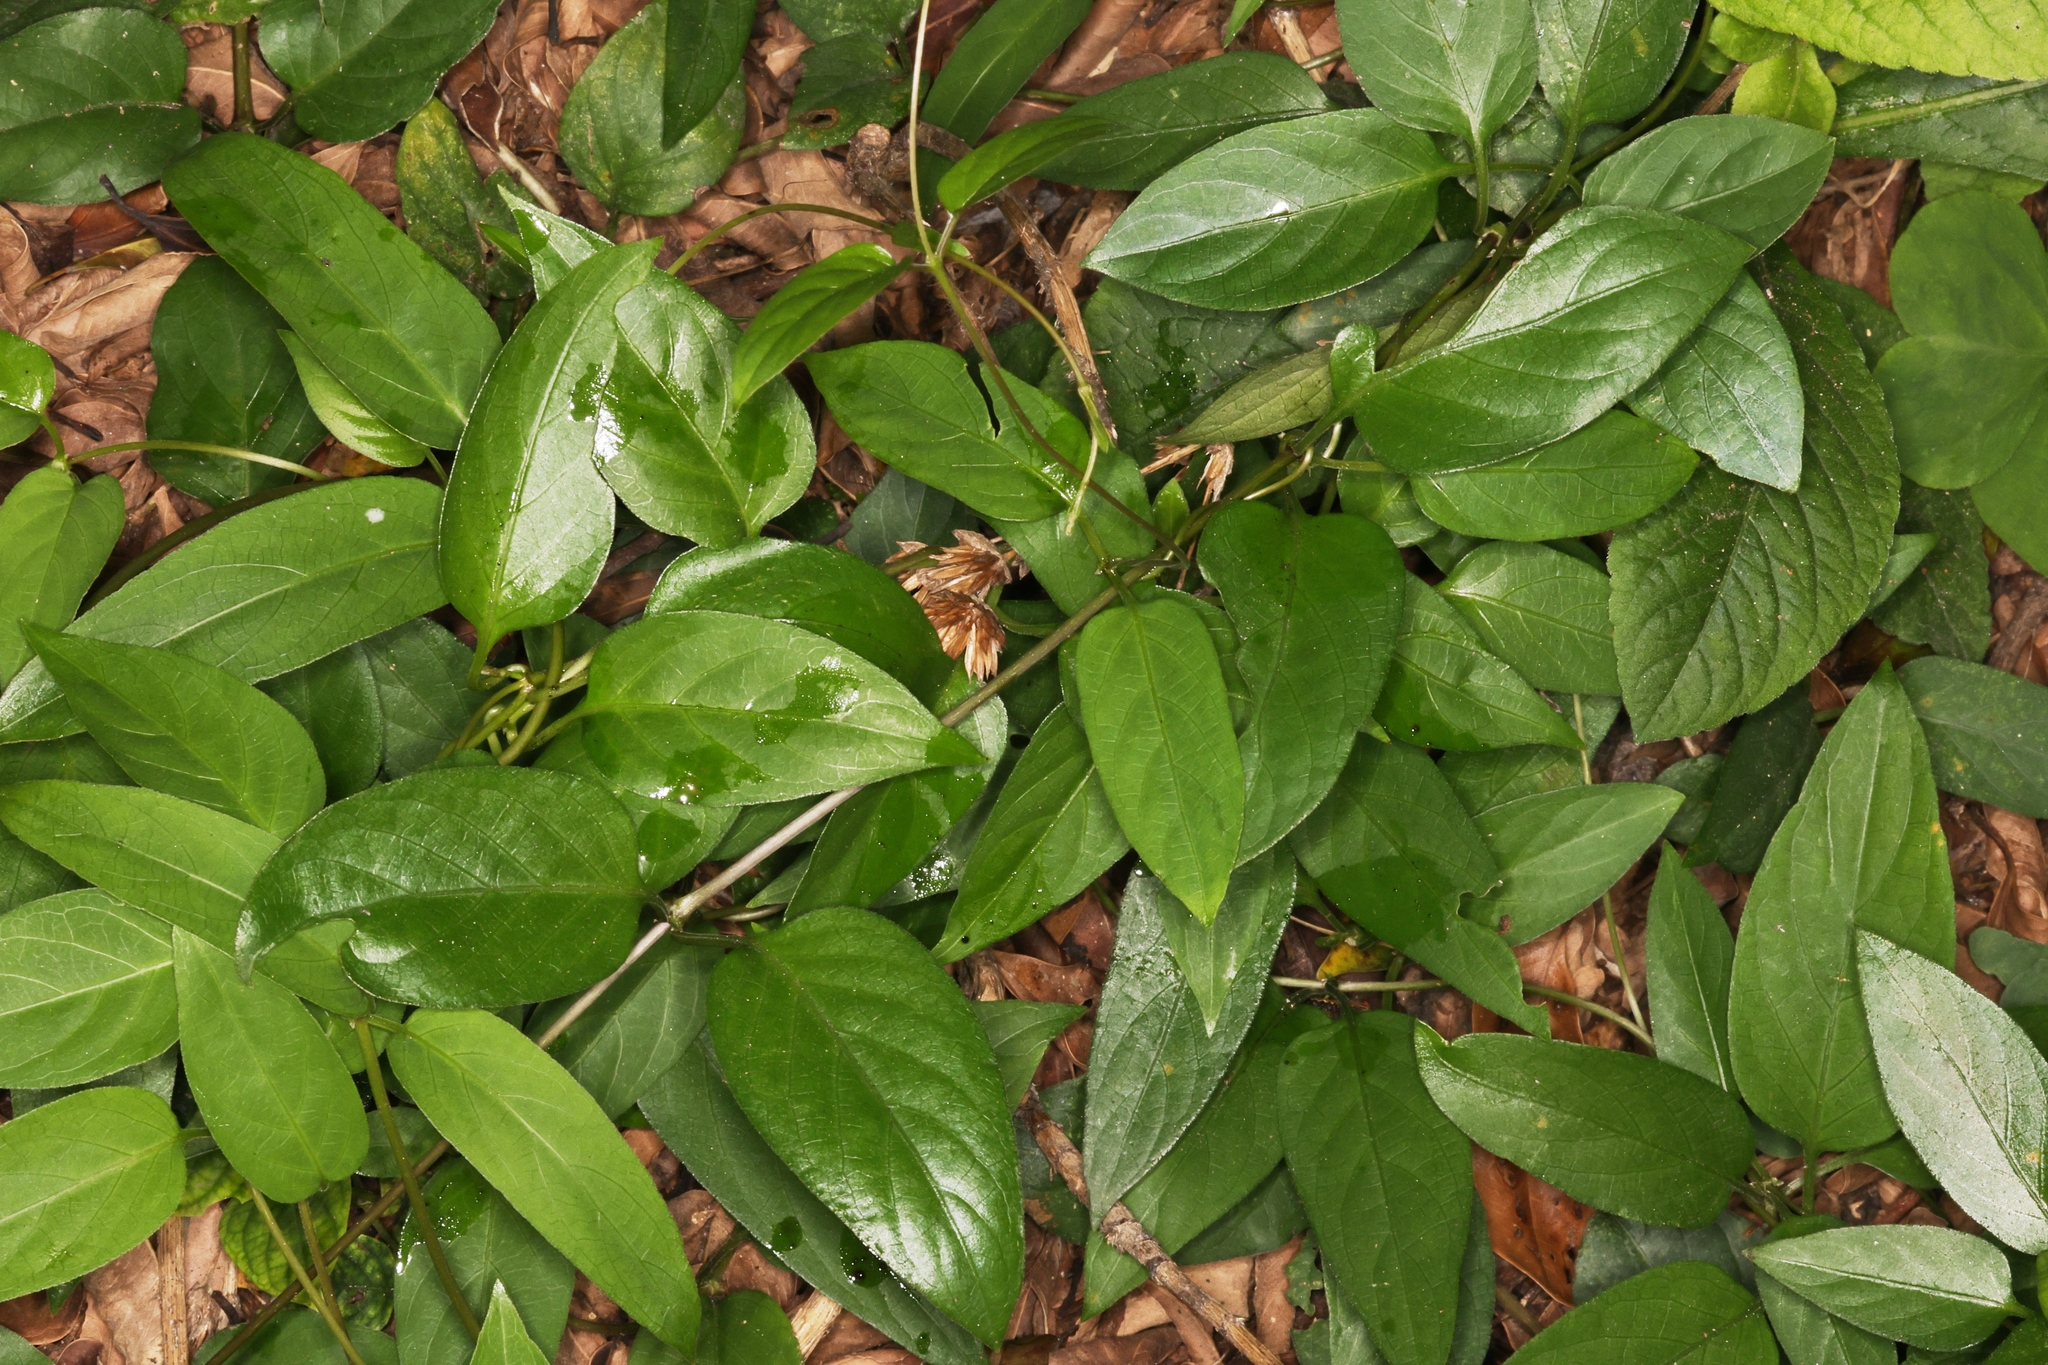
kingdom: Plantae
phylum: Tracheophyta
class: Magnoliopsida
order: Gentianales
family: Rubiaceae
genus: Paederia
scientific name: Paederia foetida
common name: Stinkvine
